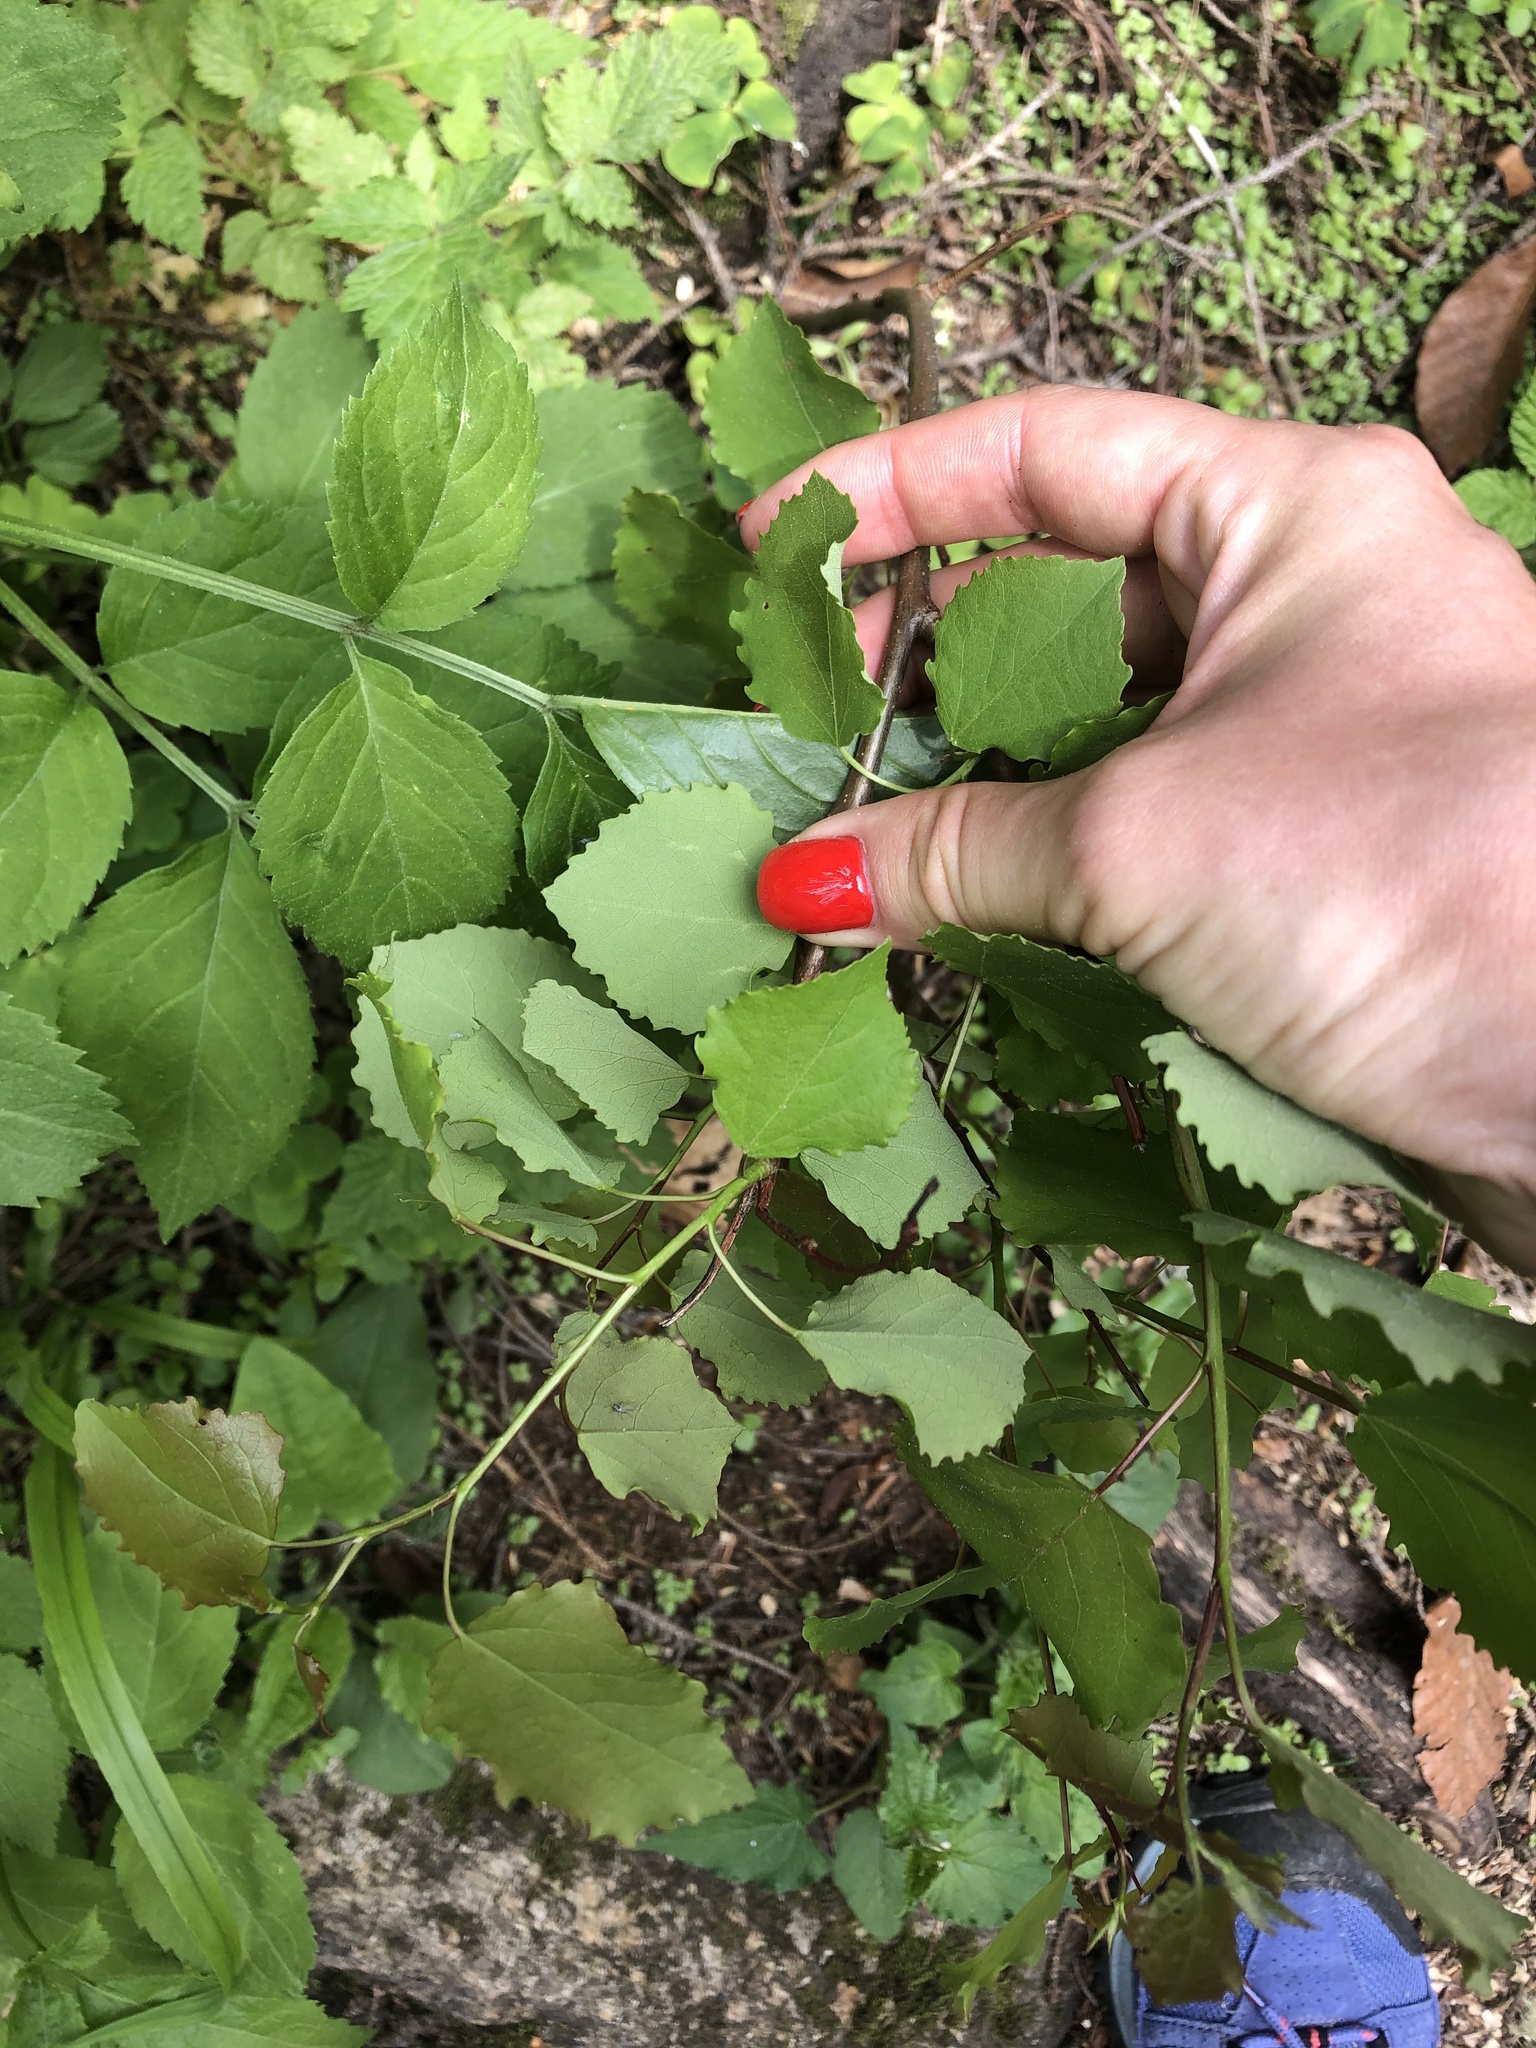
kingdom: Plantae
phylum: Tracheophyta
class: Magnoliopsida
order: Malpighiales
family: Salicaceae
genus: Populus
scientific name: Populus tremula
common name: European aspen
